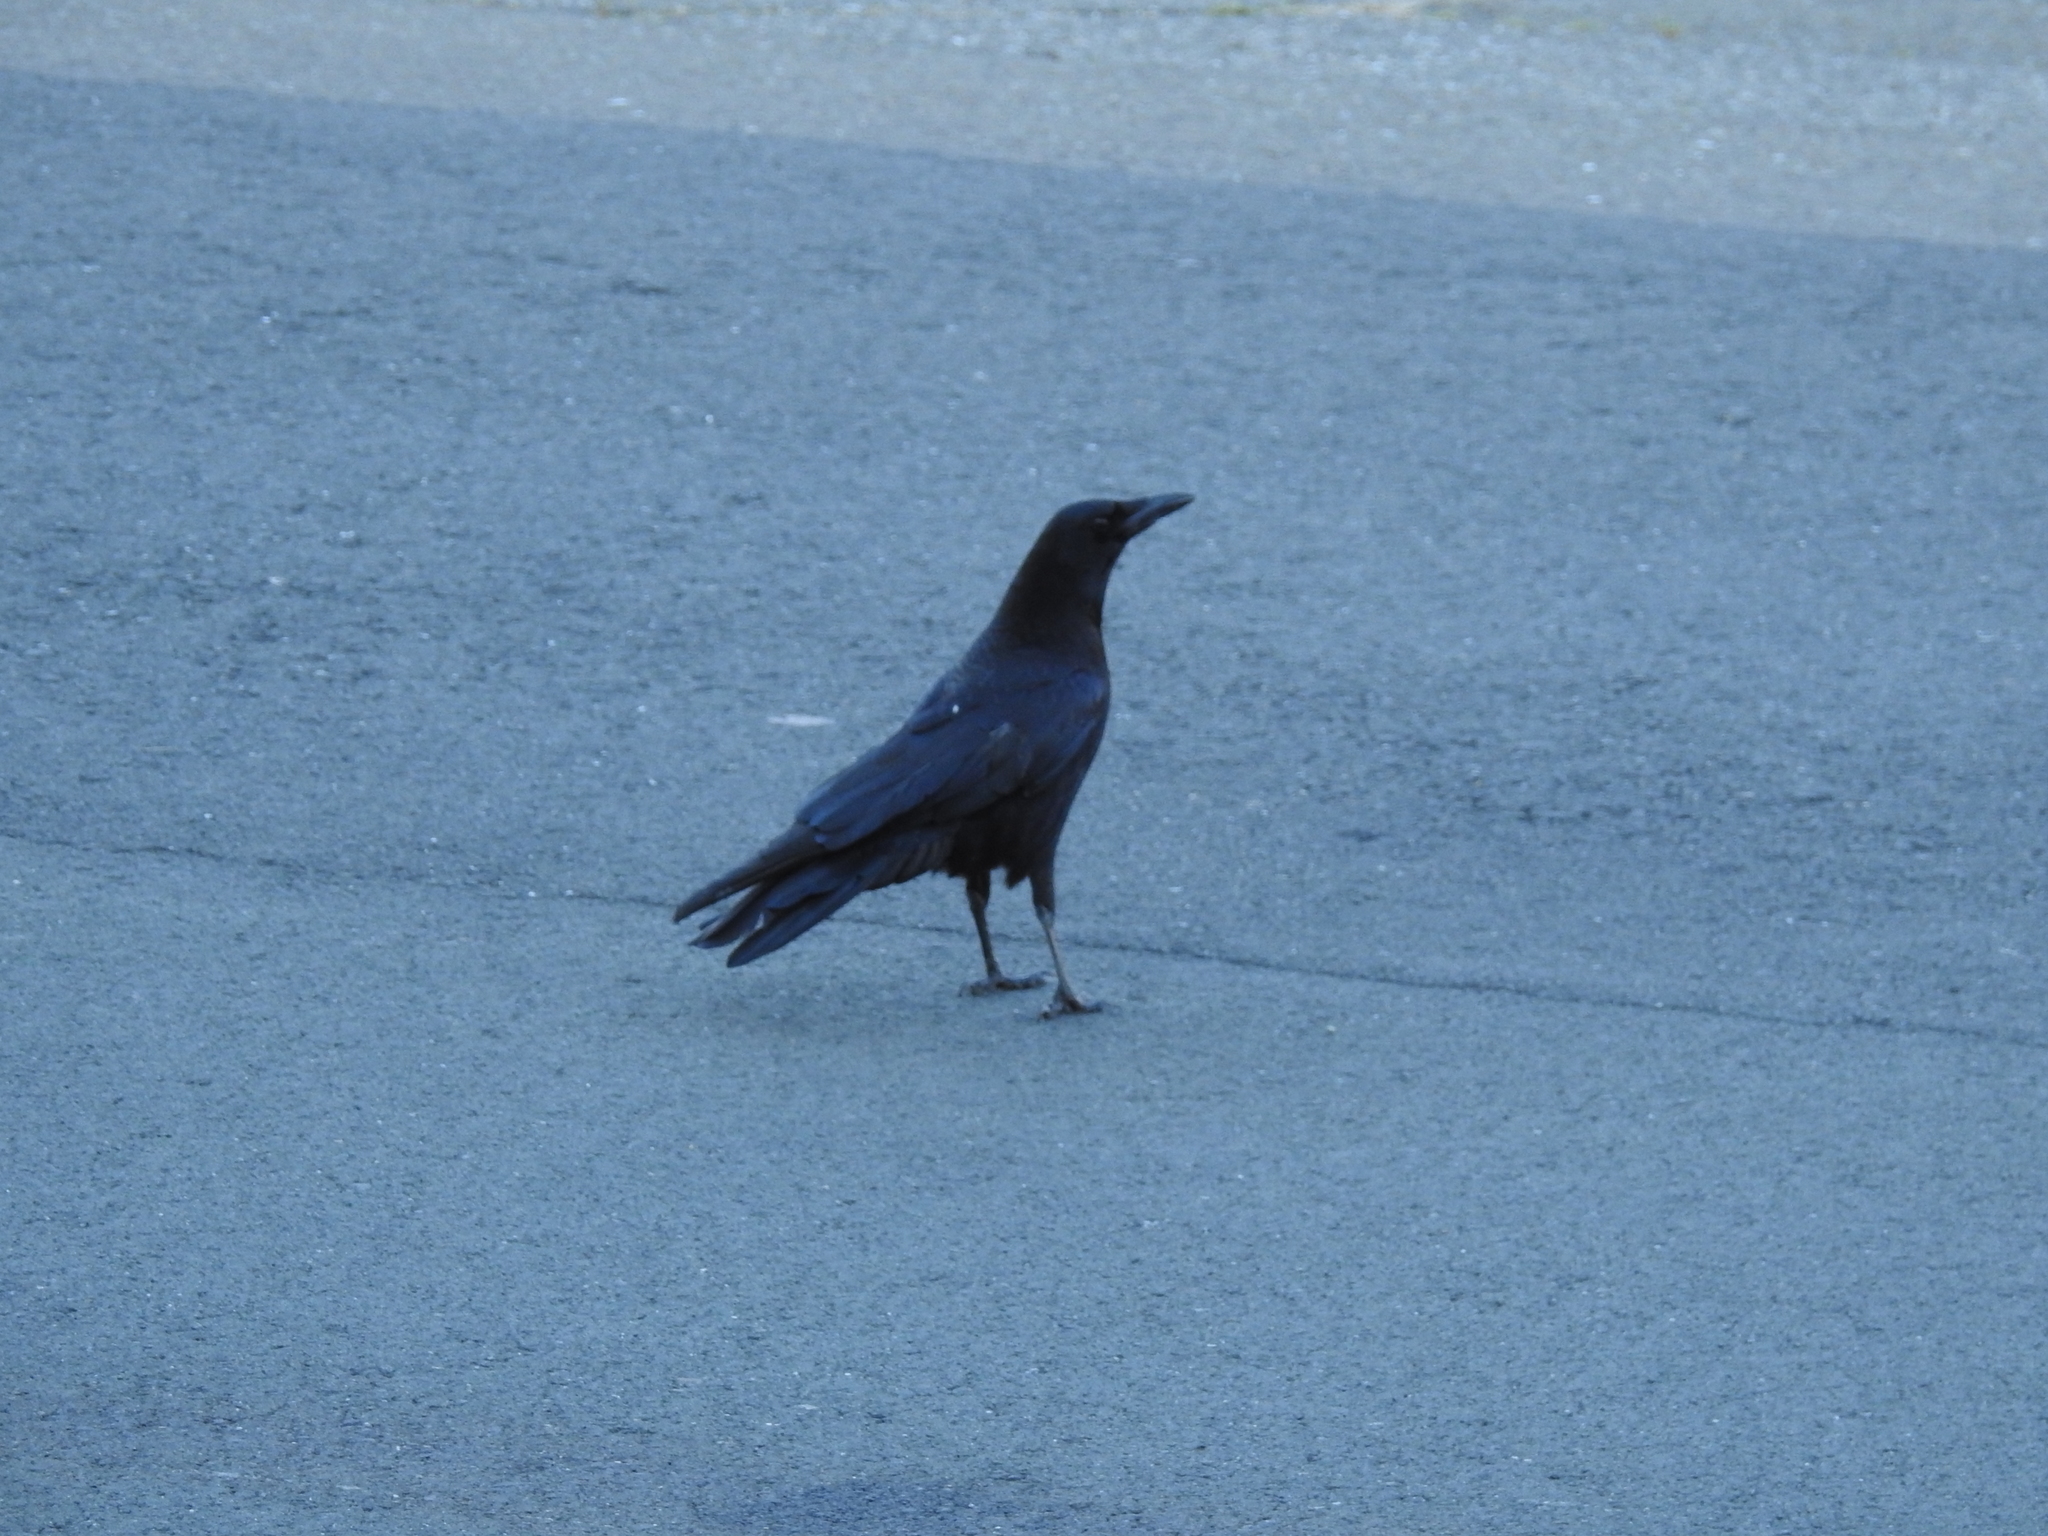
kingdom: Animalia
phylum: Chordata
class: Aves
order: Passeriformes
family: Corvidae
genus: Corvus
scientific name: Corvus brachyrhynchos
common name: American crow
